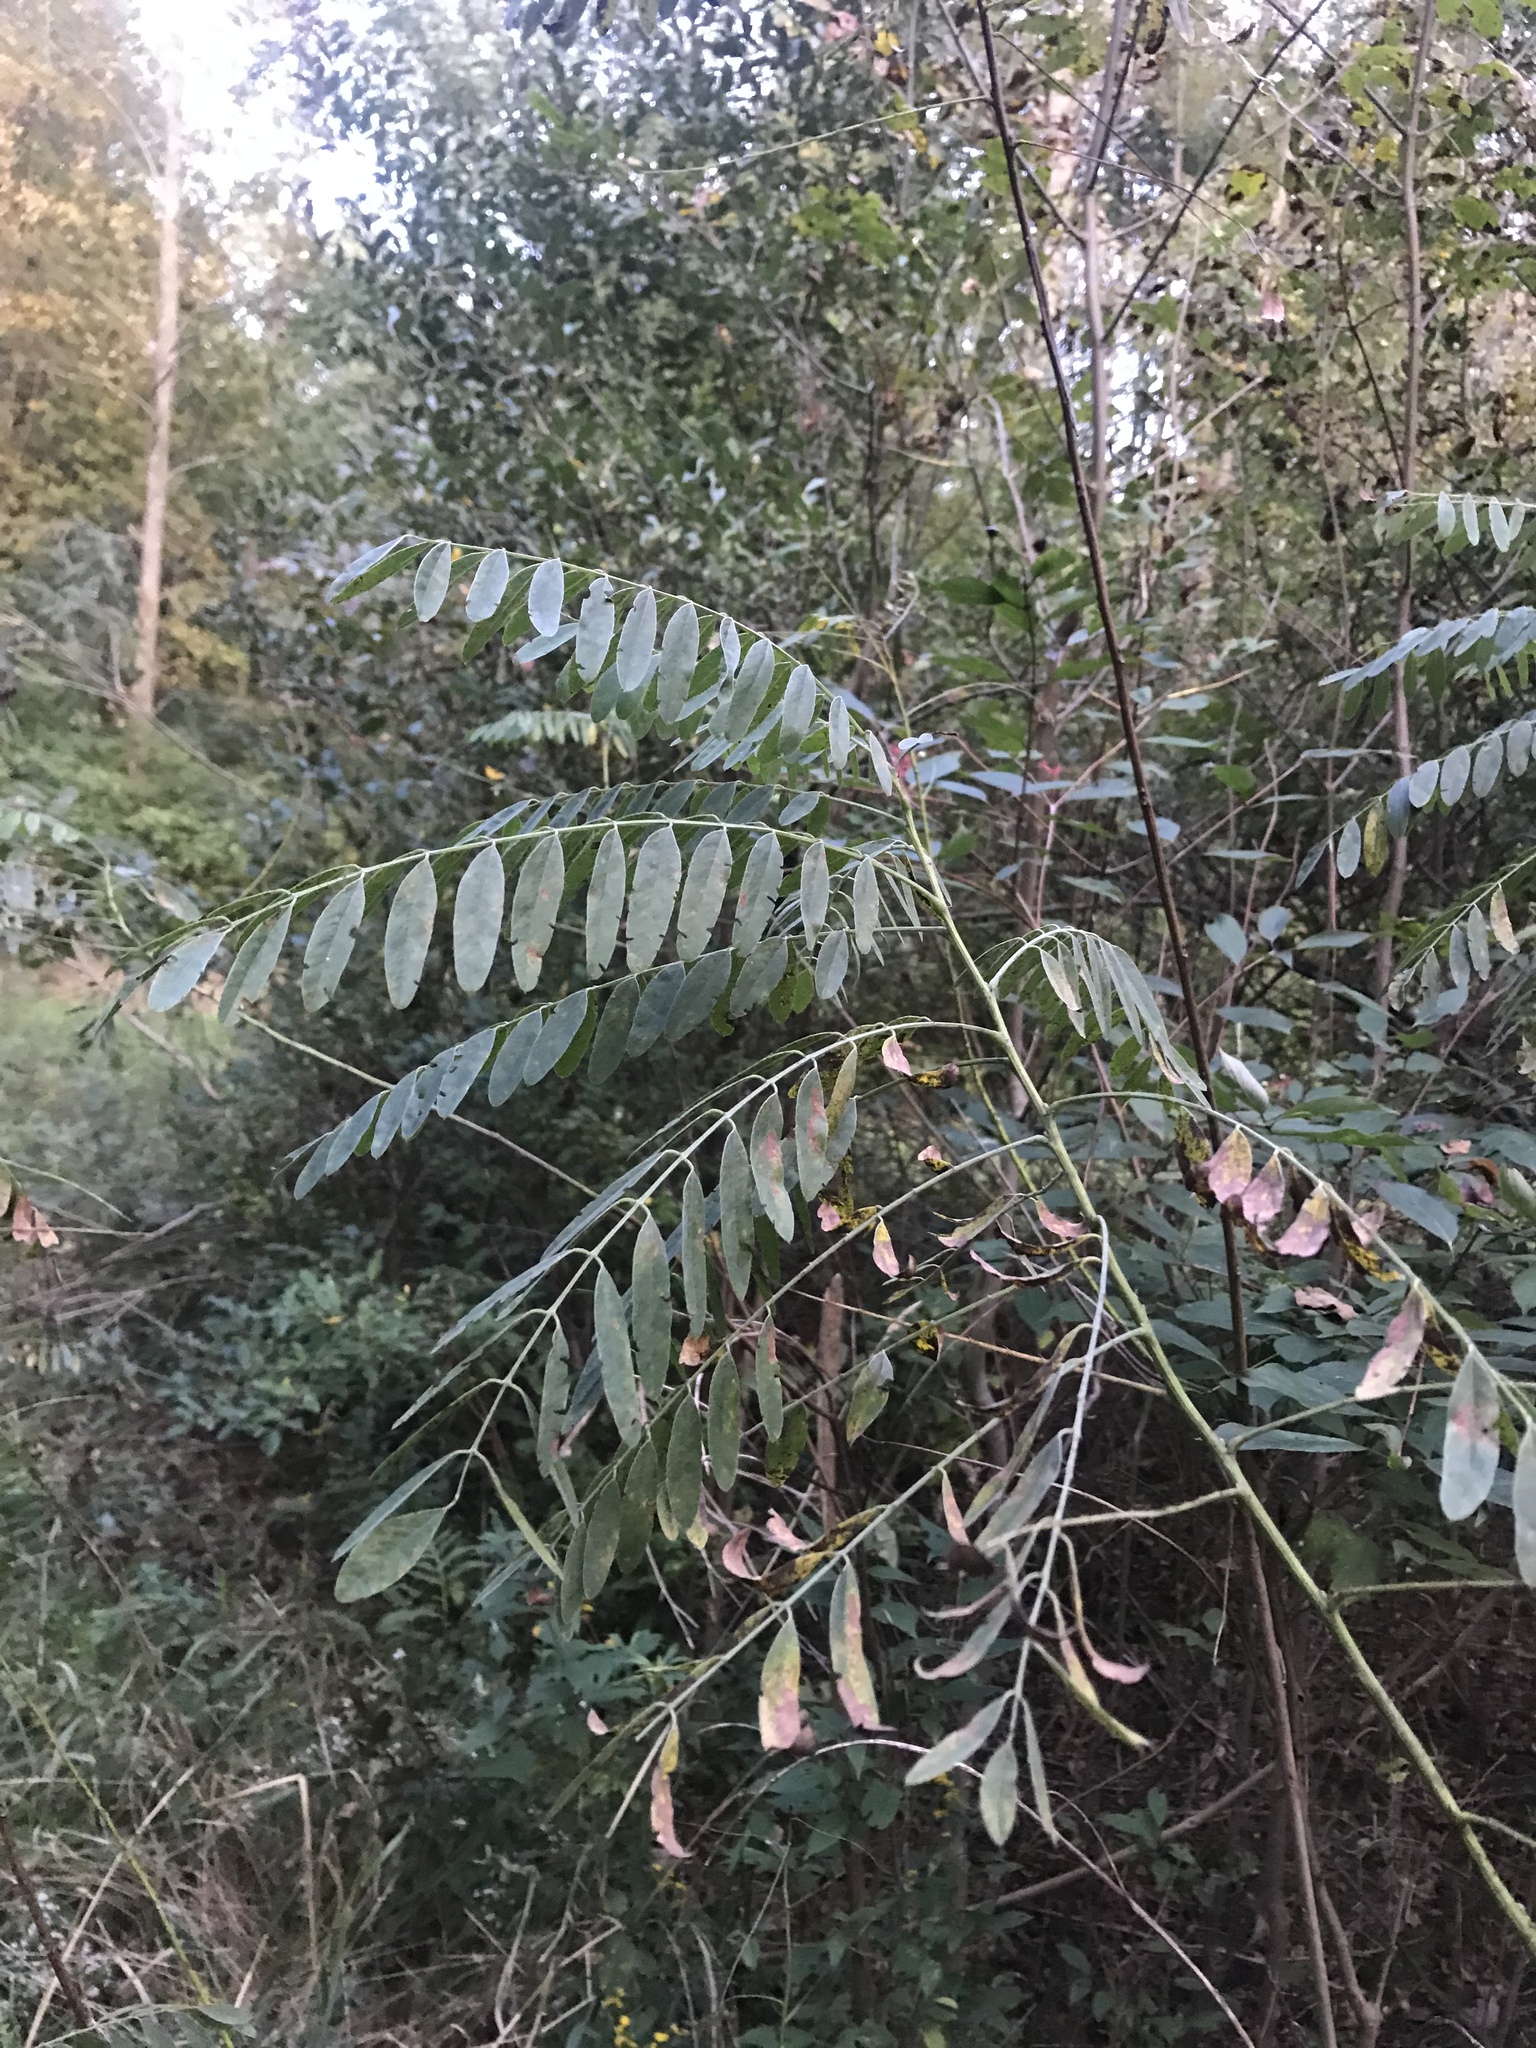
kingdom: Plantae
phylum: Tracheophyta
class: Magnoliopsida
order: Fabales
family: Fabaceae
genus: Robinia
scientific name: Robinia pseudoacacia
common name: Black locust
